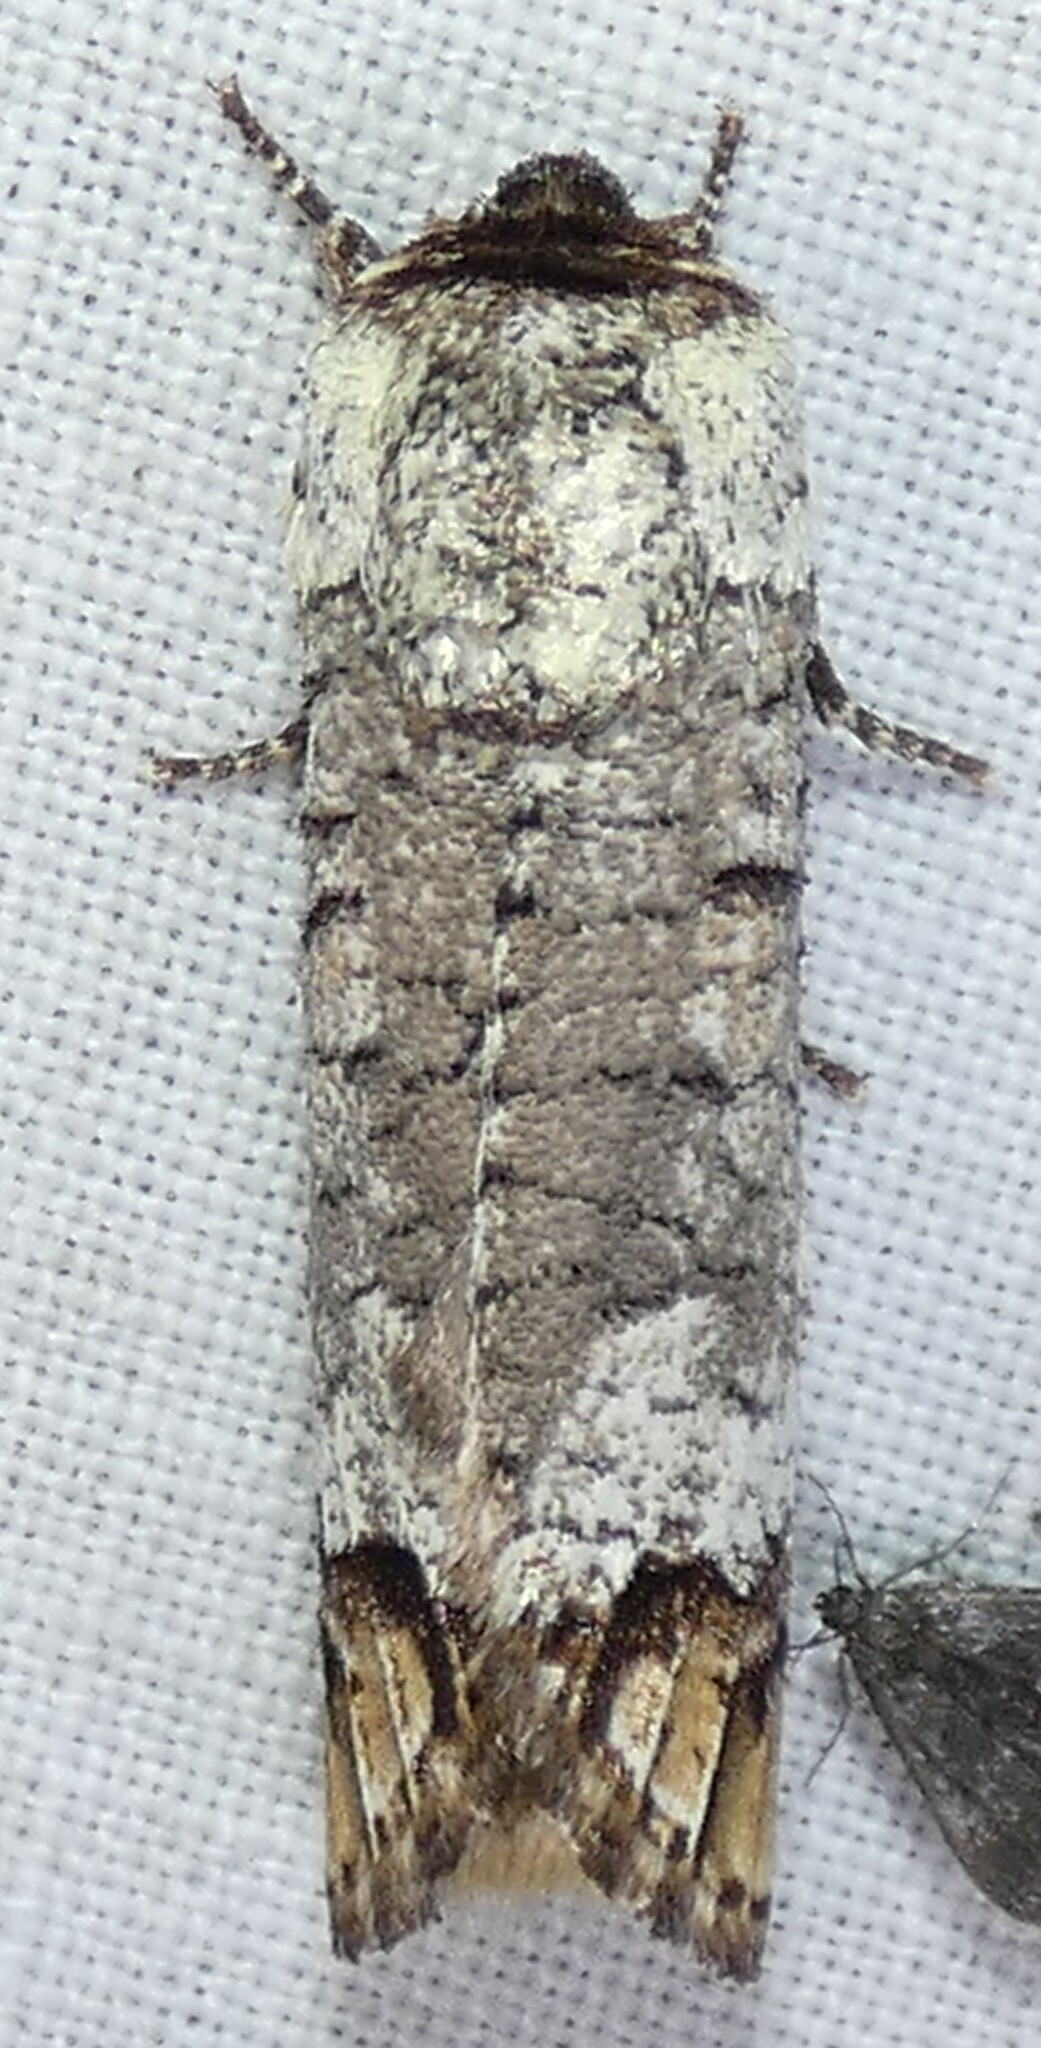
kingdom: Animalia
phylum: Arthropoda
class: Insecta
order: Lepidoptera
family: Cossidae
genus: Cossula
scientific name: Cossula magnifica
